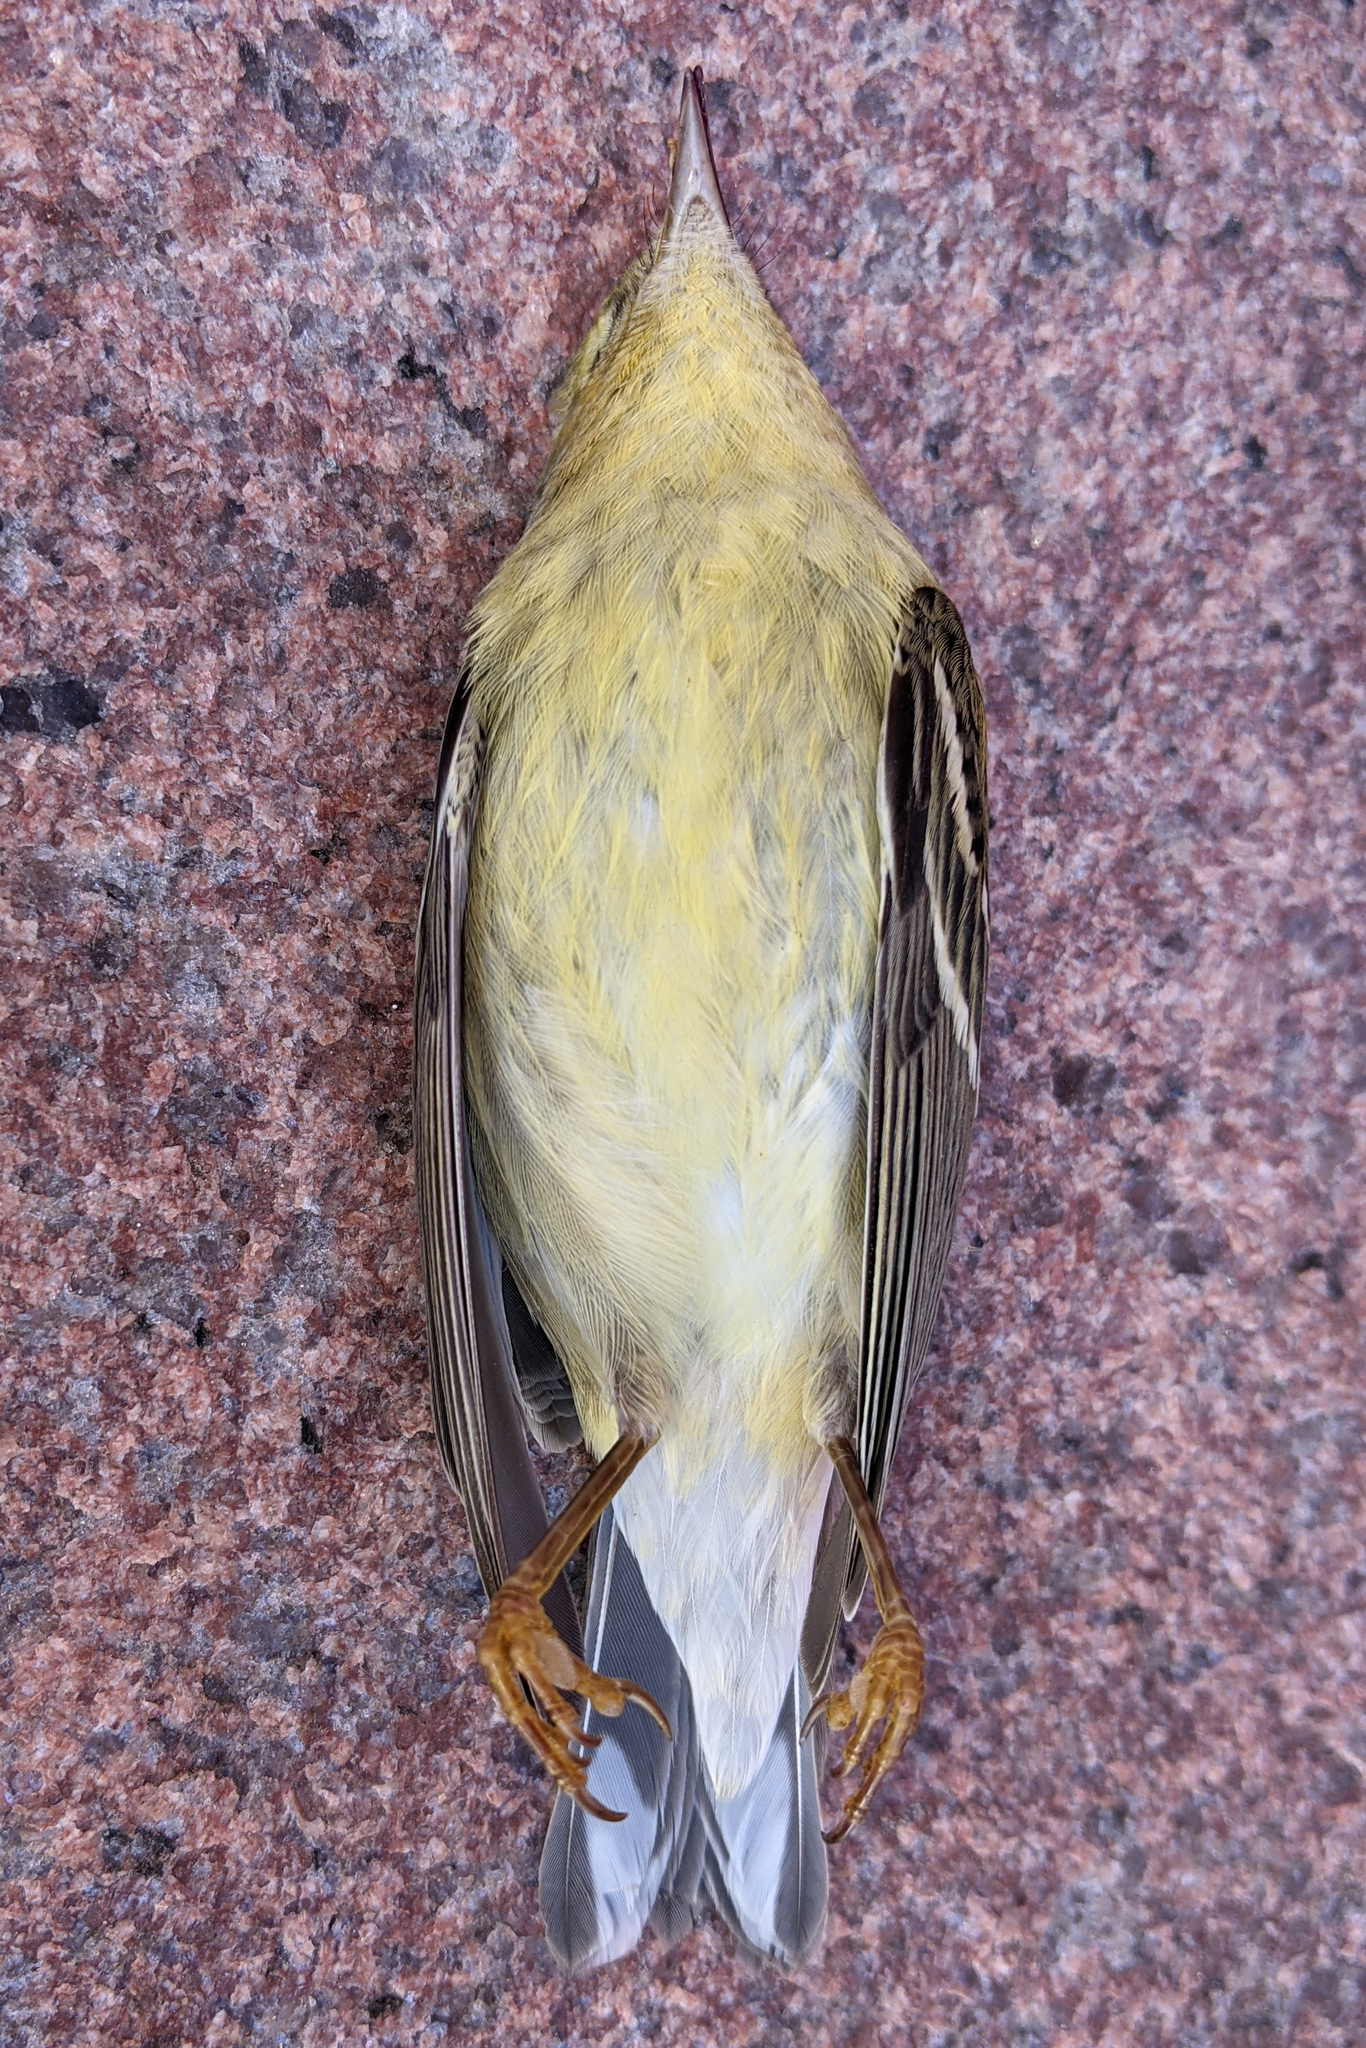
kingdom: Animalia
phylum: Chordata
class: Aves
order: Passeriformes
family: Parulidae
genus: Setophaga
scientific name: Setophaga striata
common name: Blackpoll warbler
